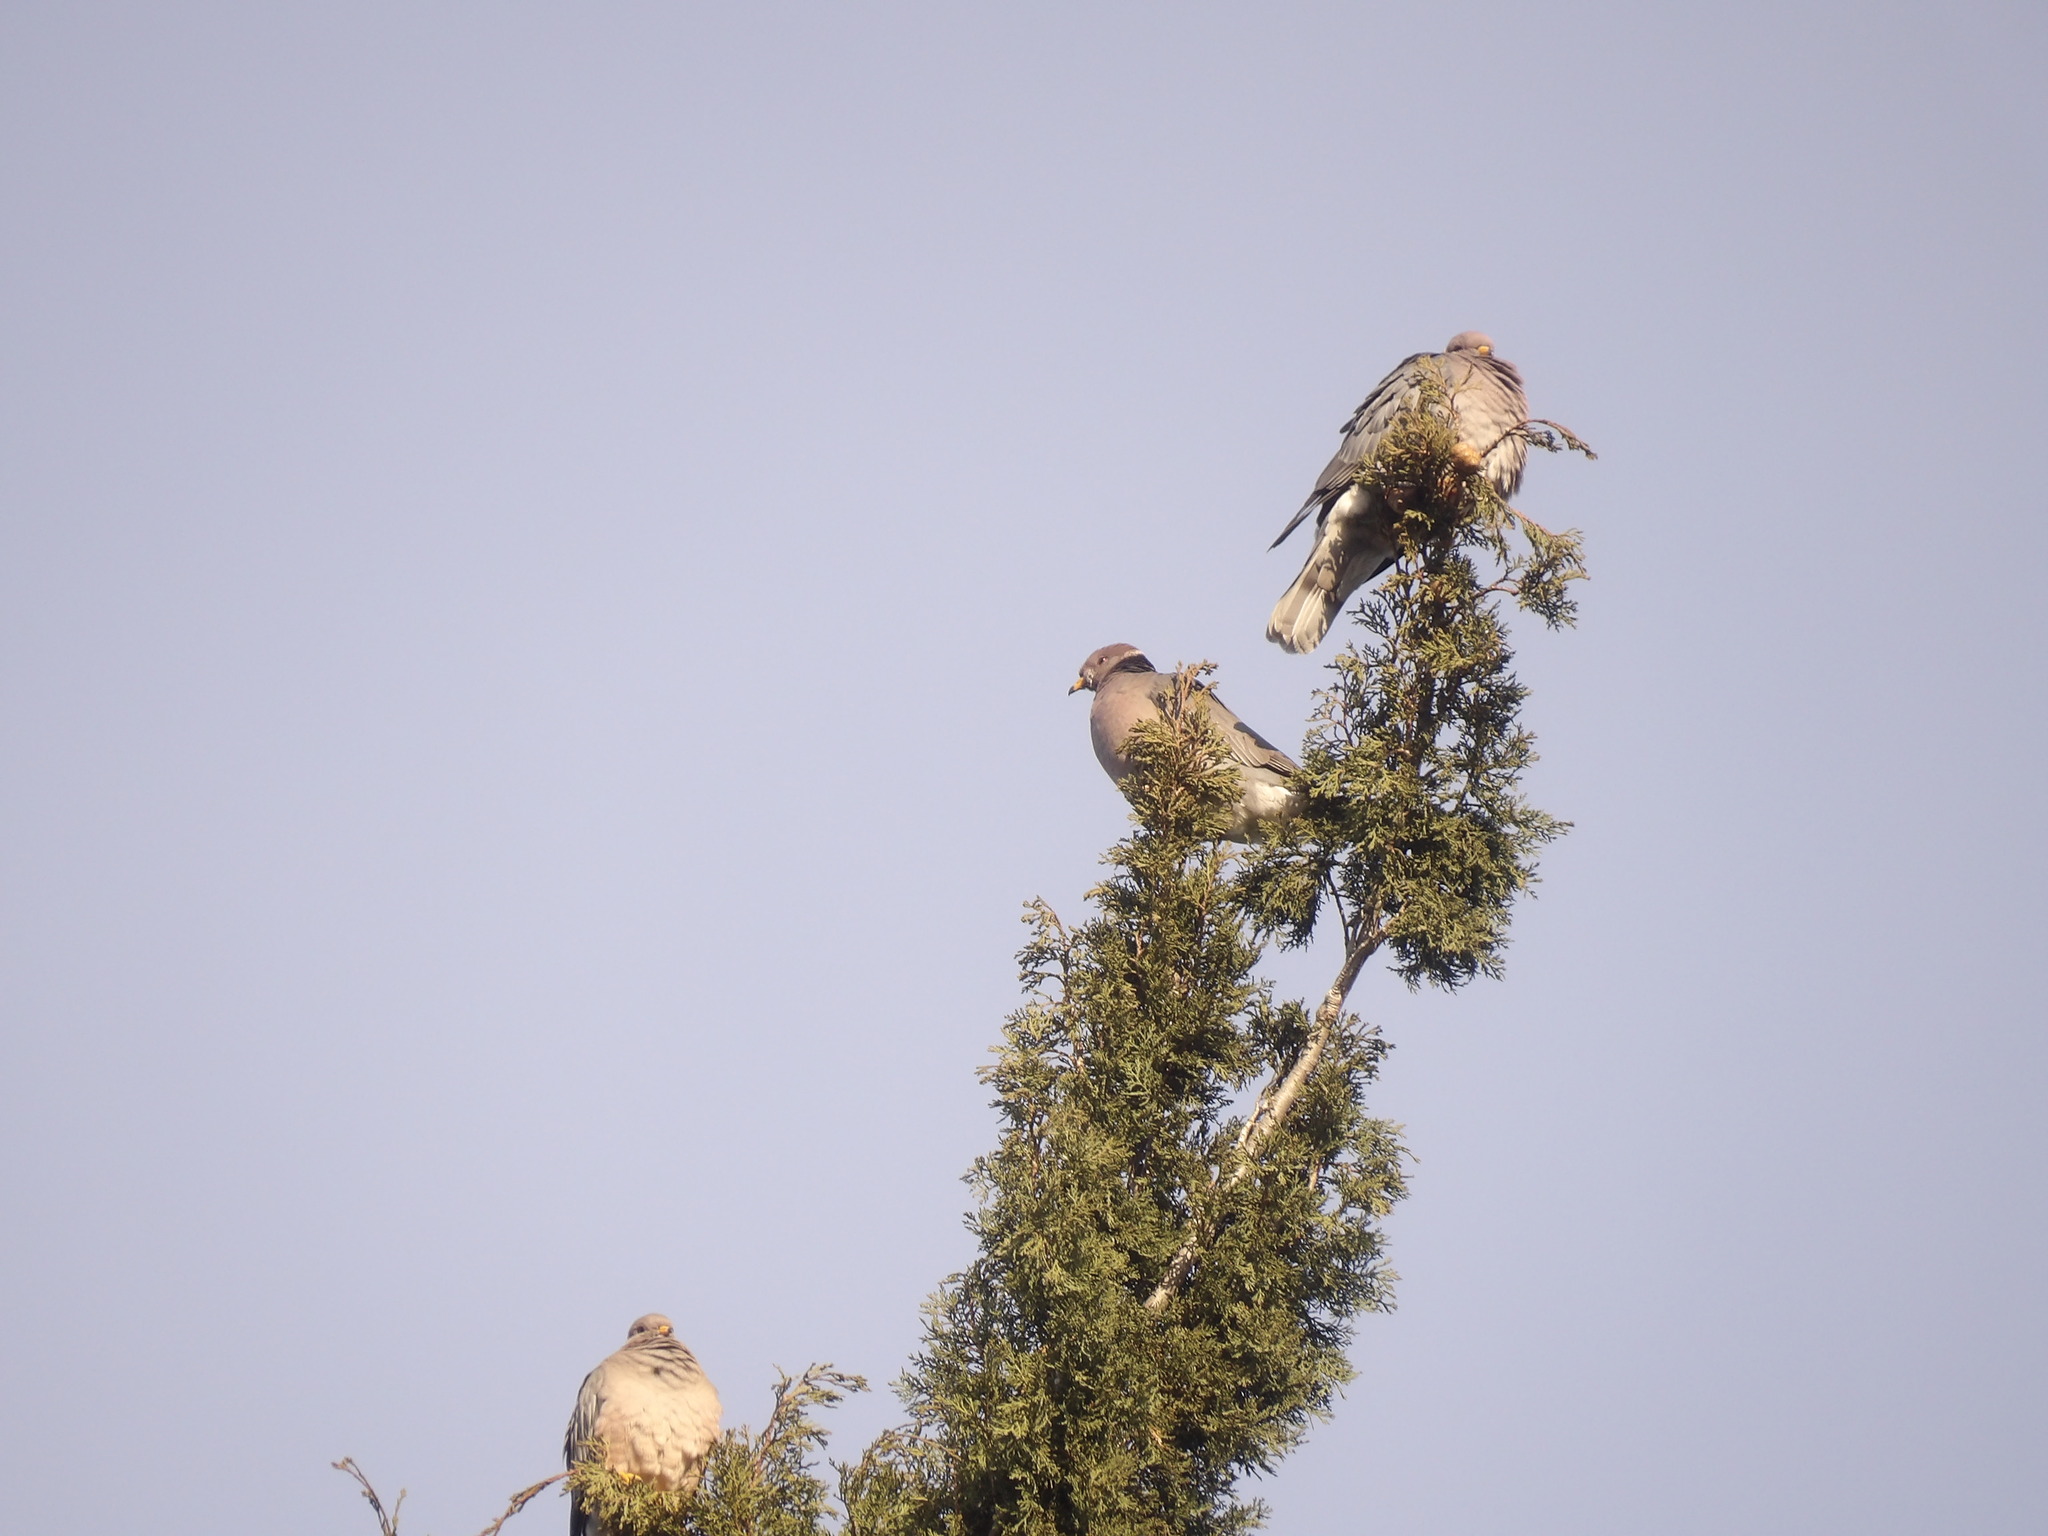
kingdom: Animalia
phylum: Chordata
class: Aves
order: Columbiformes
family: Columbidae
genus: Patagioenas
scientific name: Patagioenas fasciata
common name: Band-tailed pigeon
